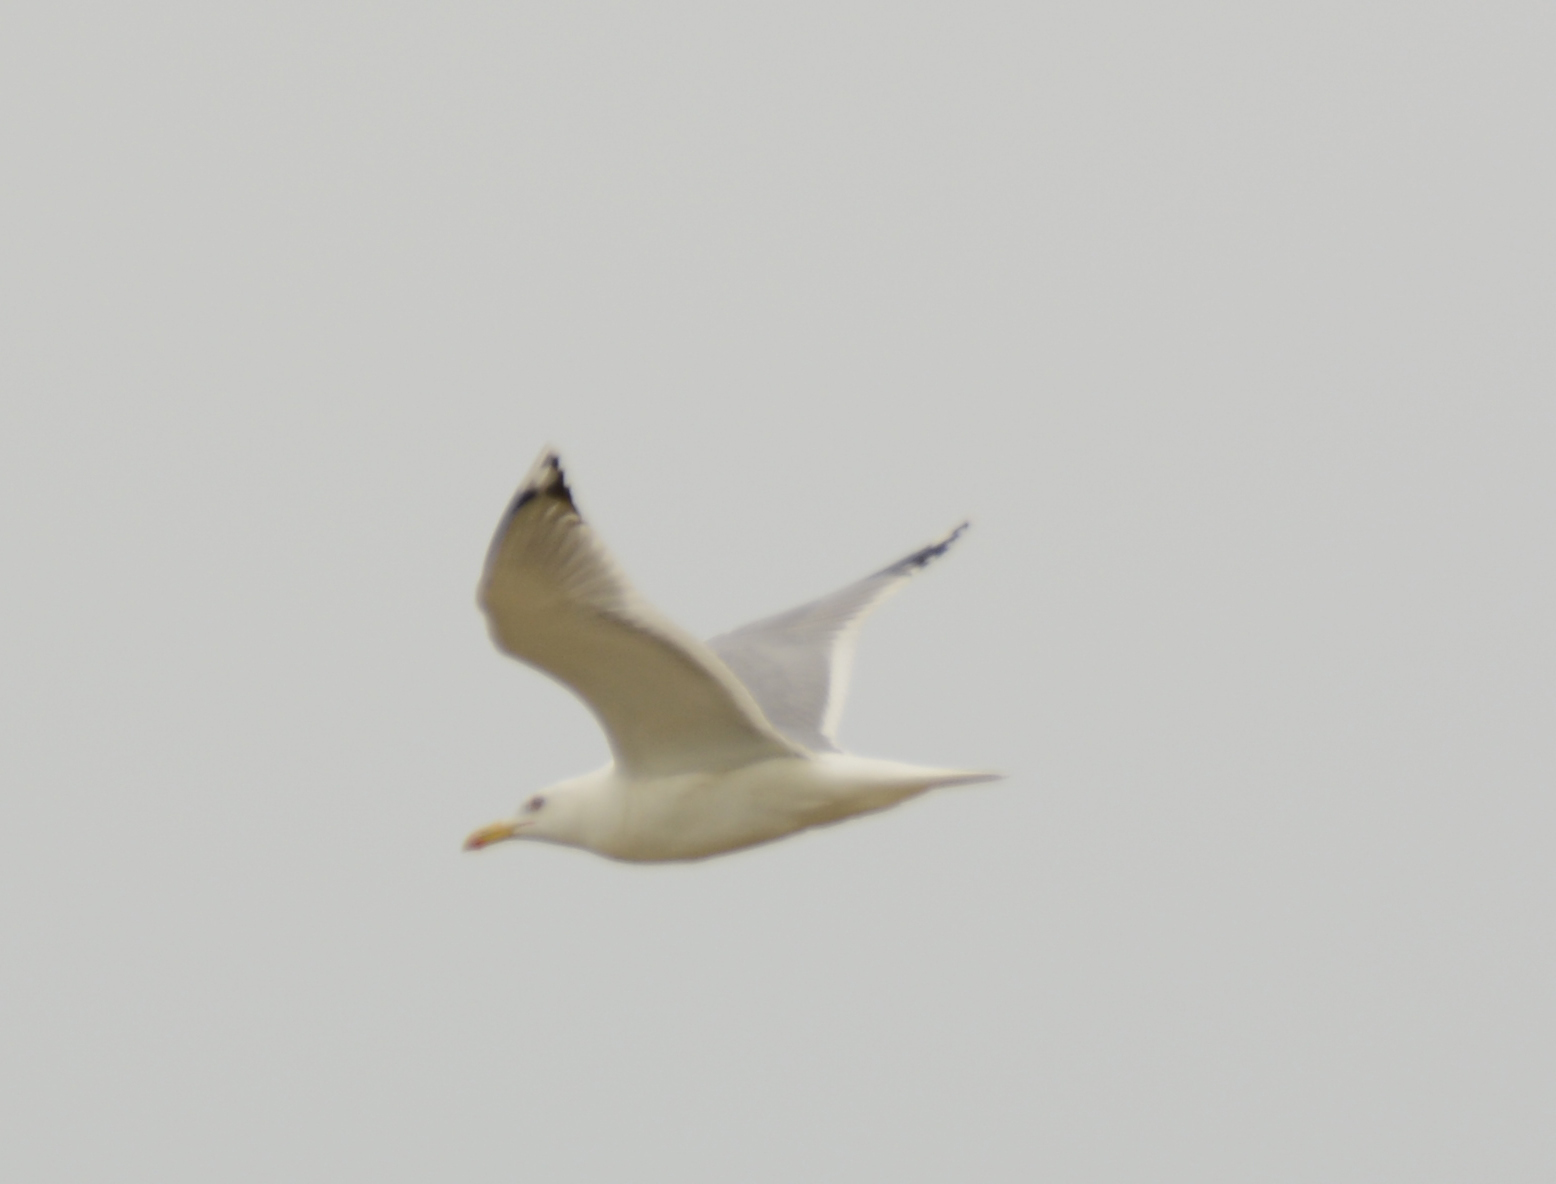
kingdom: Animalia
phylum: Chordata
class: Aves
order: Charadriiformes
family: Laridae
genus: Larus
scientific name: Larus cachinnans
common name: Caspian gull
